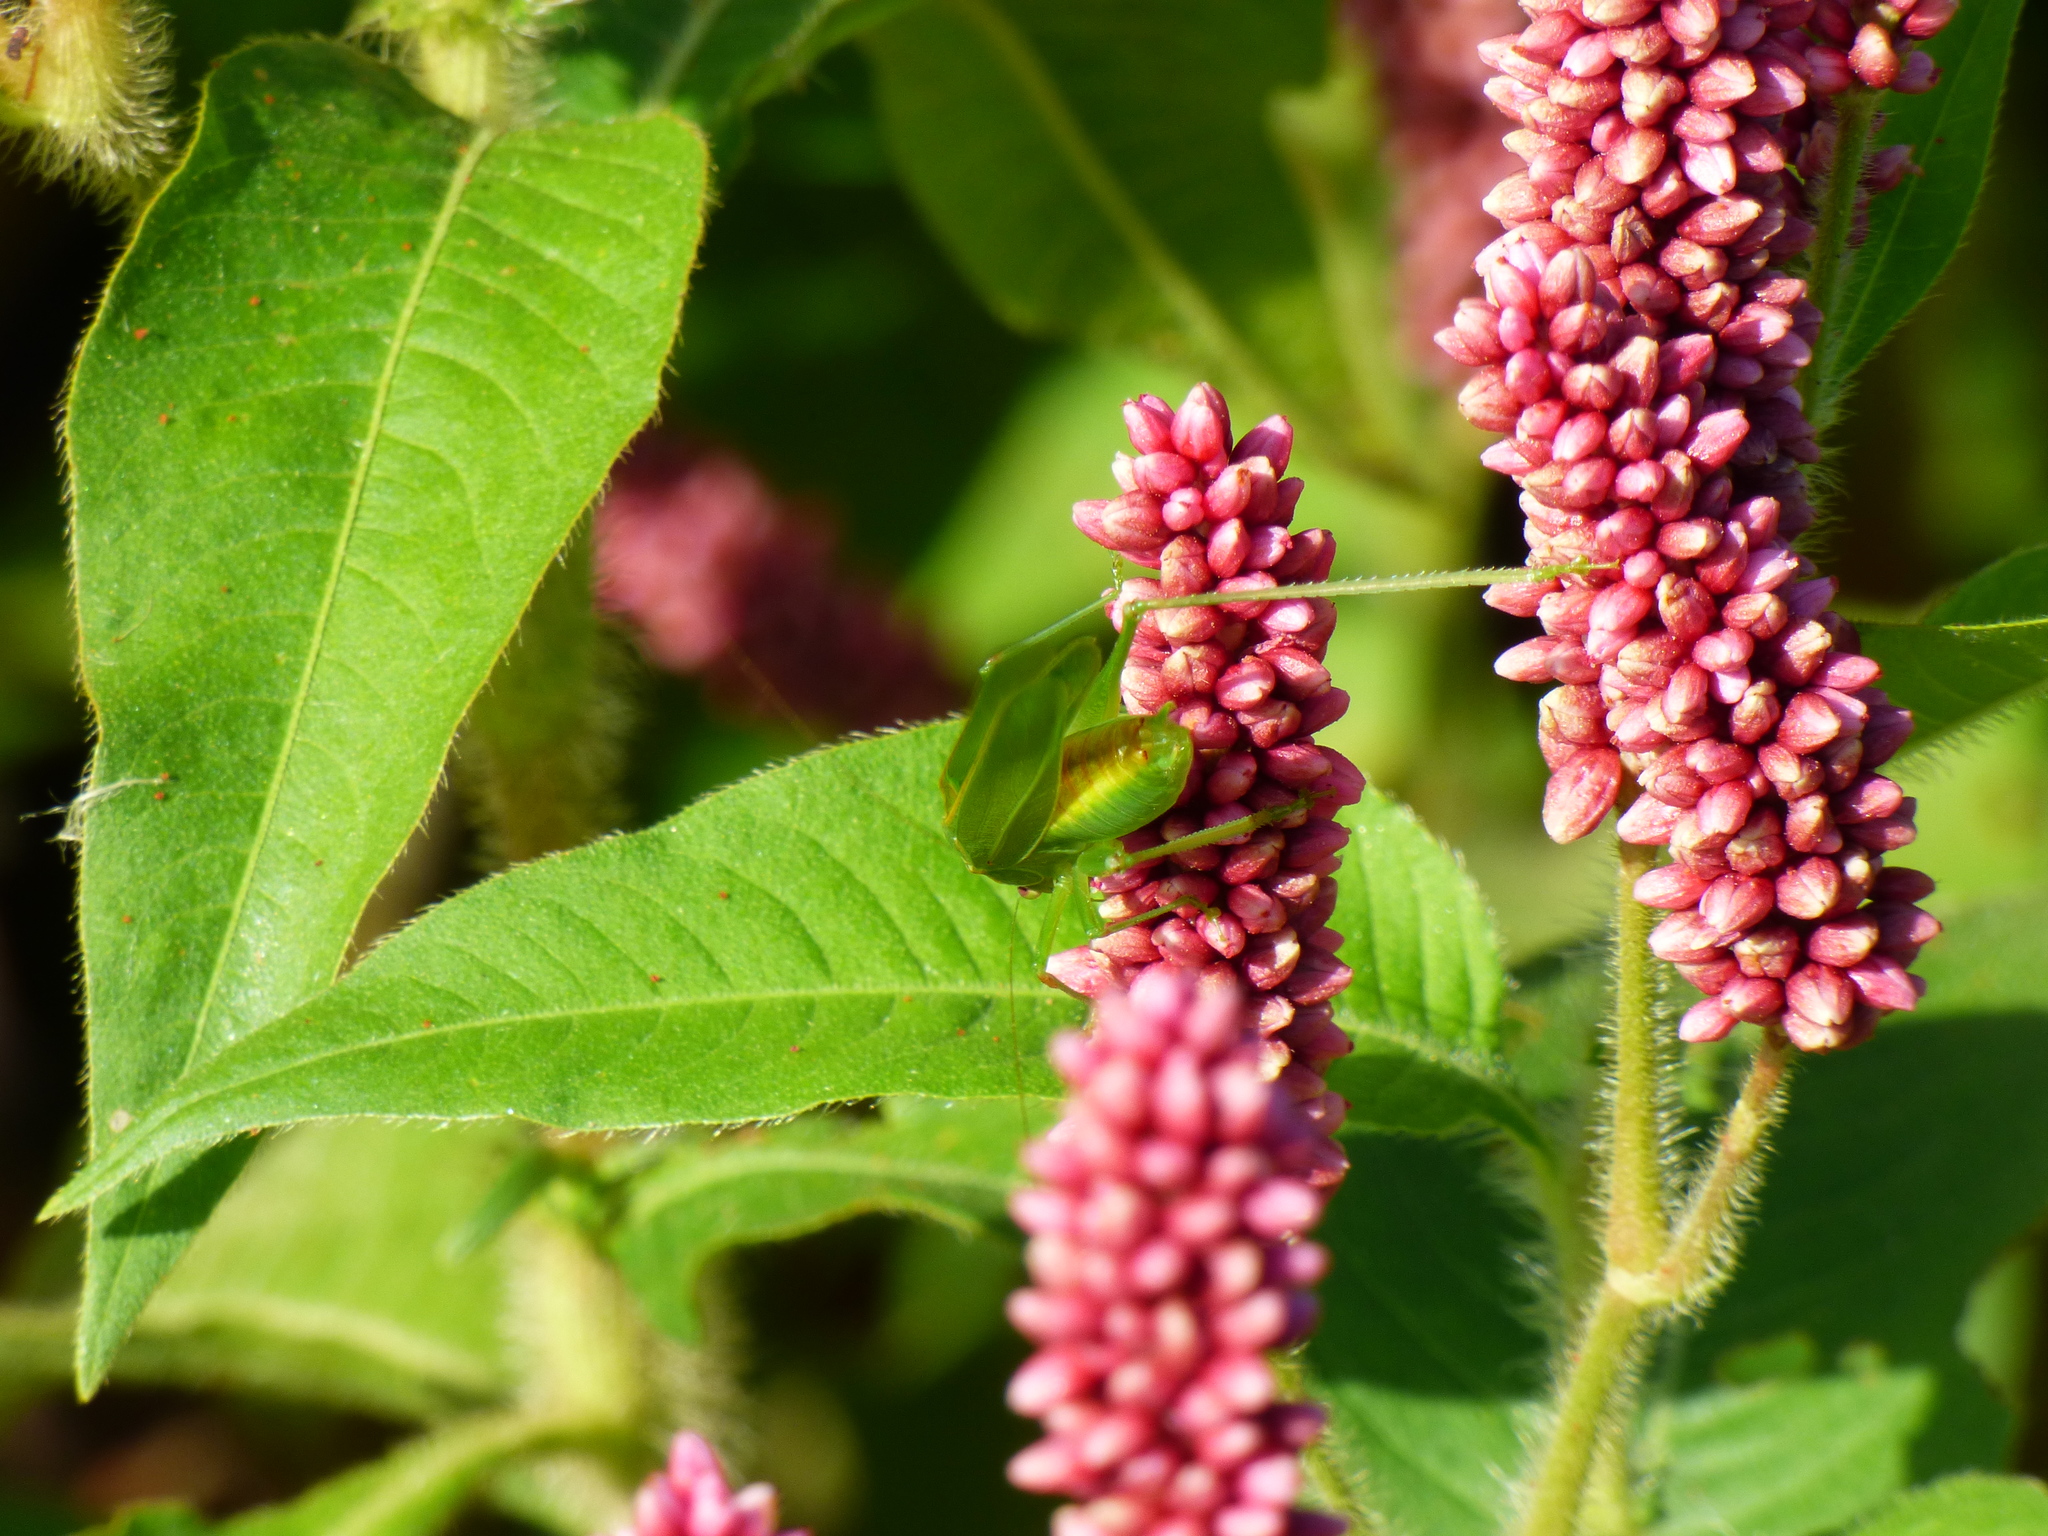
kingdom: Animalia
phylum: Arthropoda
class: Insecta
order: Orthoptera
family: Tettigoniidae
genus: Ligocatinus
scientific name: Ligocatinus spinatus
